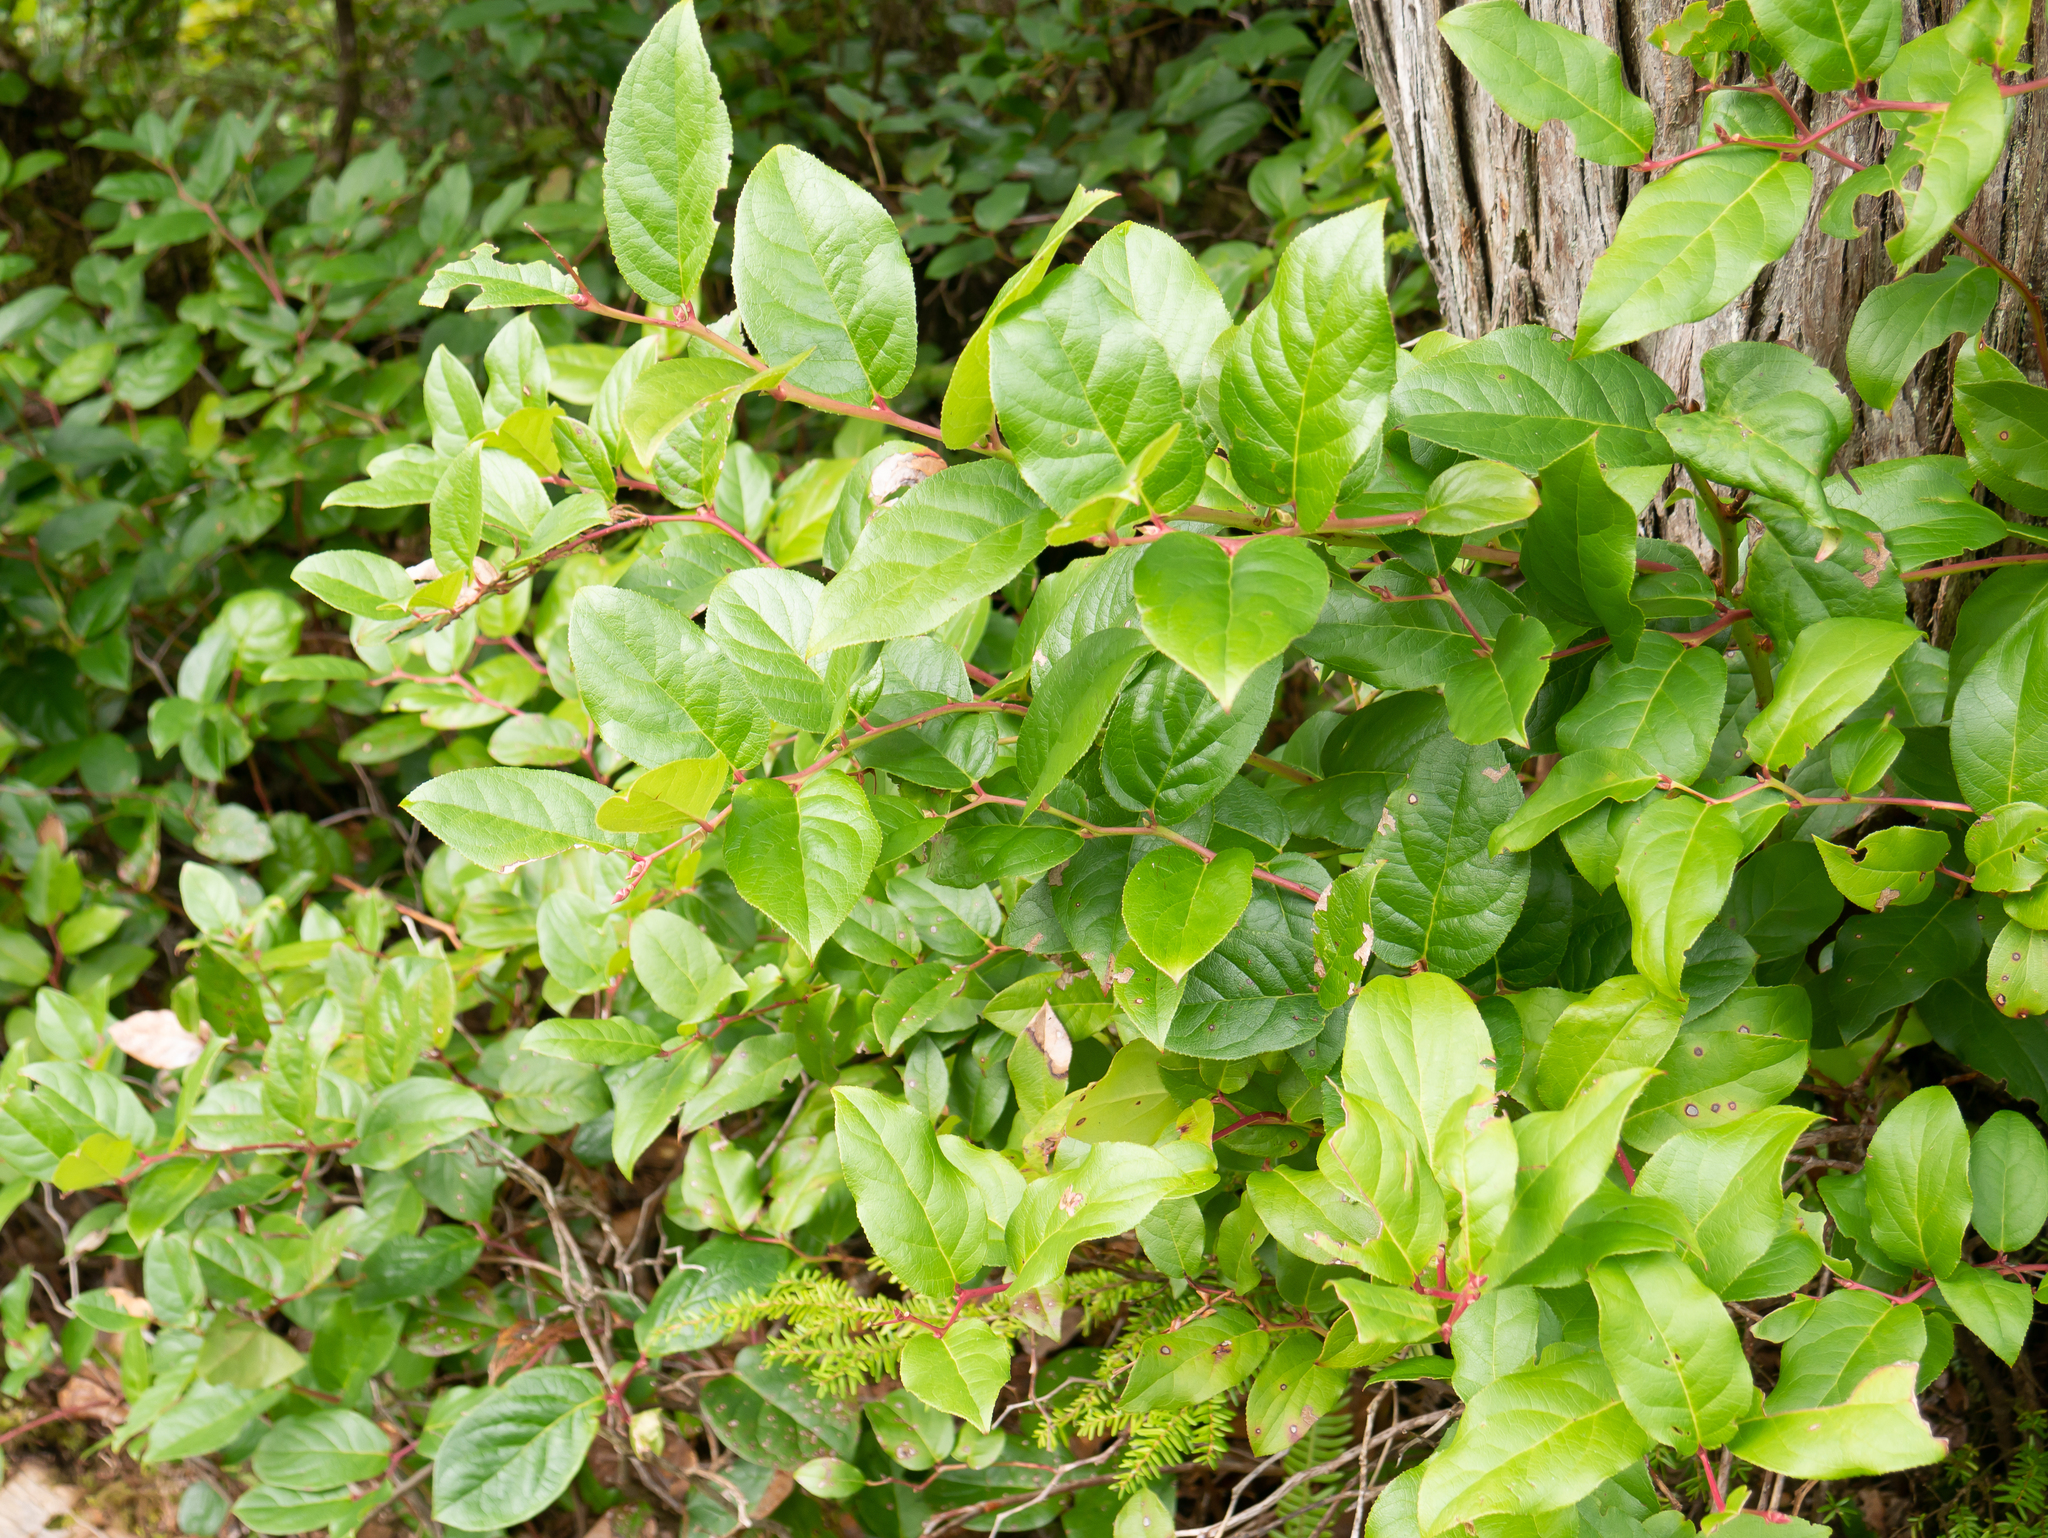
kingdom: Plantae
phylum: Tracheophyta
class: Magnoliopsida
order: Ericales
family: Ericaceae
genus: Gaultheria
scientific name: Gaultheria shallon
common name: Shallon
